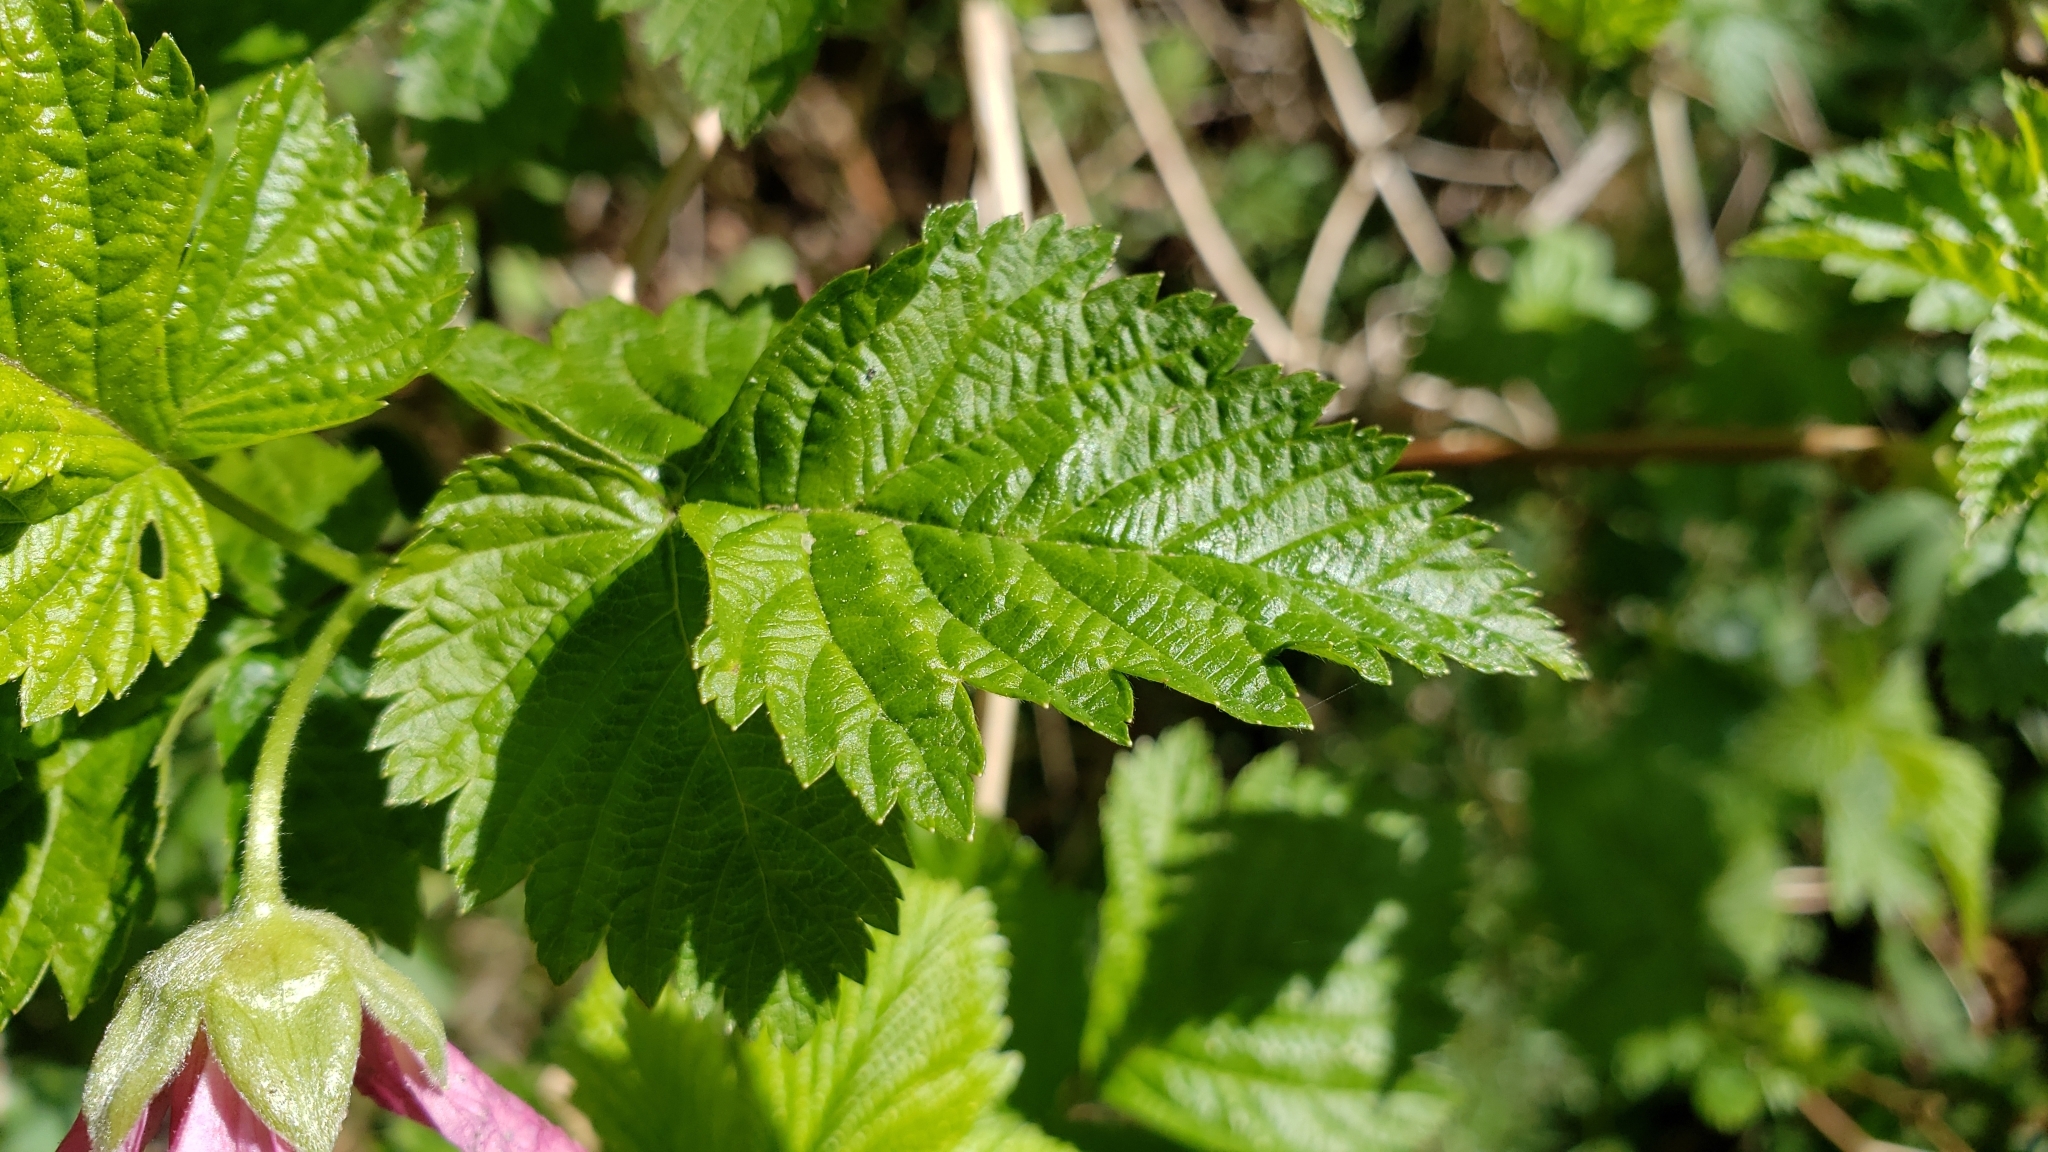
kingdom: Plantae
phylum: Tracheophyta
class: Magnoliopsida
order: Rosales
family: Rosaceae
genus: Rubus
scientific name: Rubus spectabilis
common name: Salmonberry
